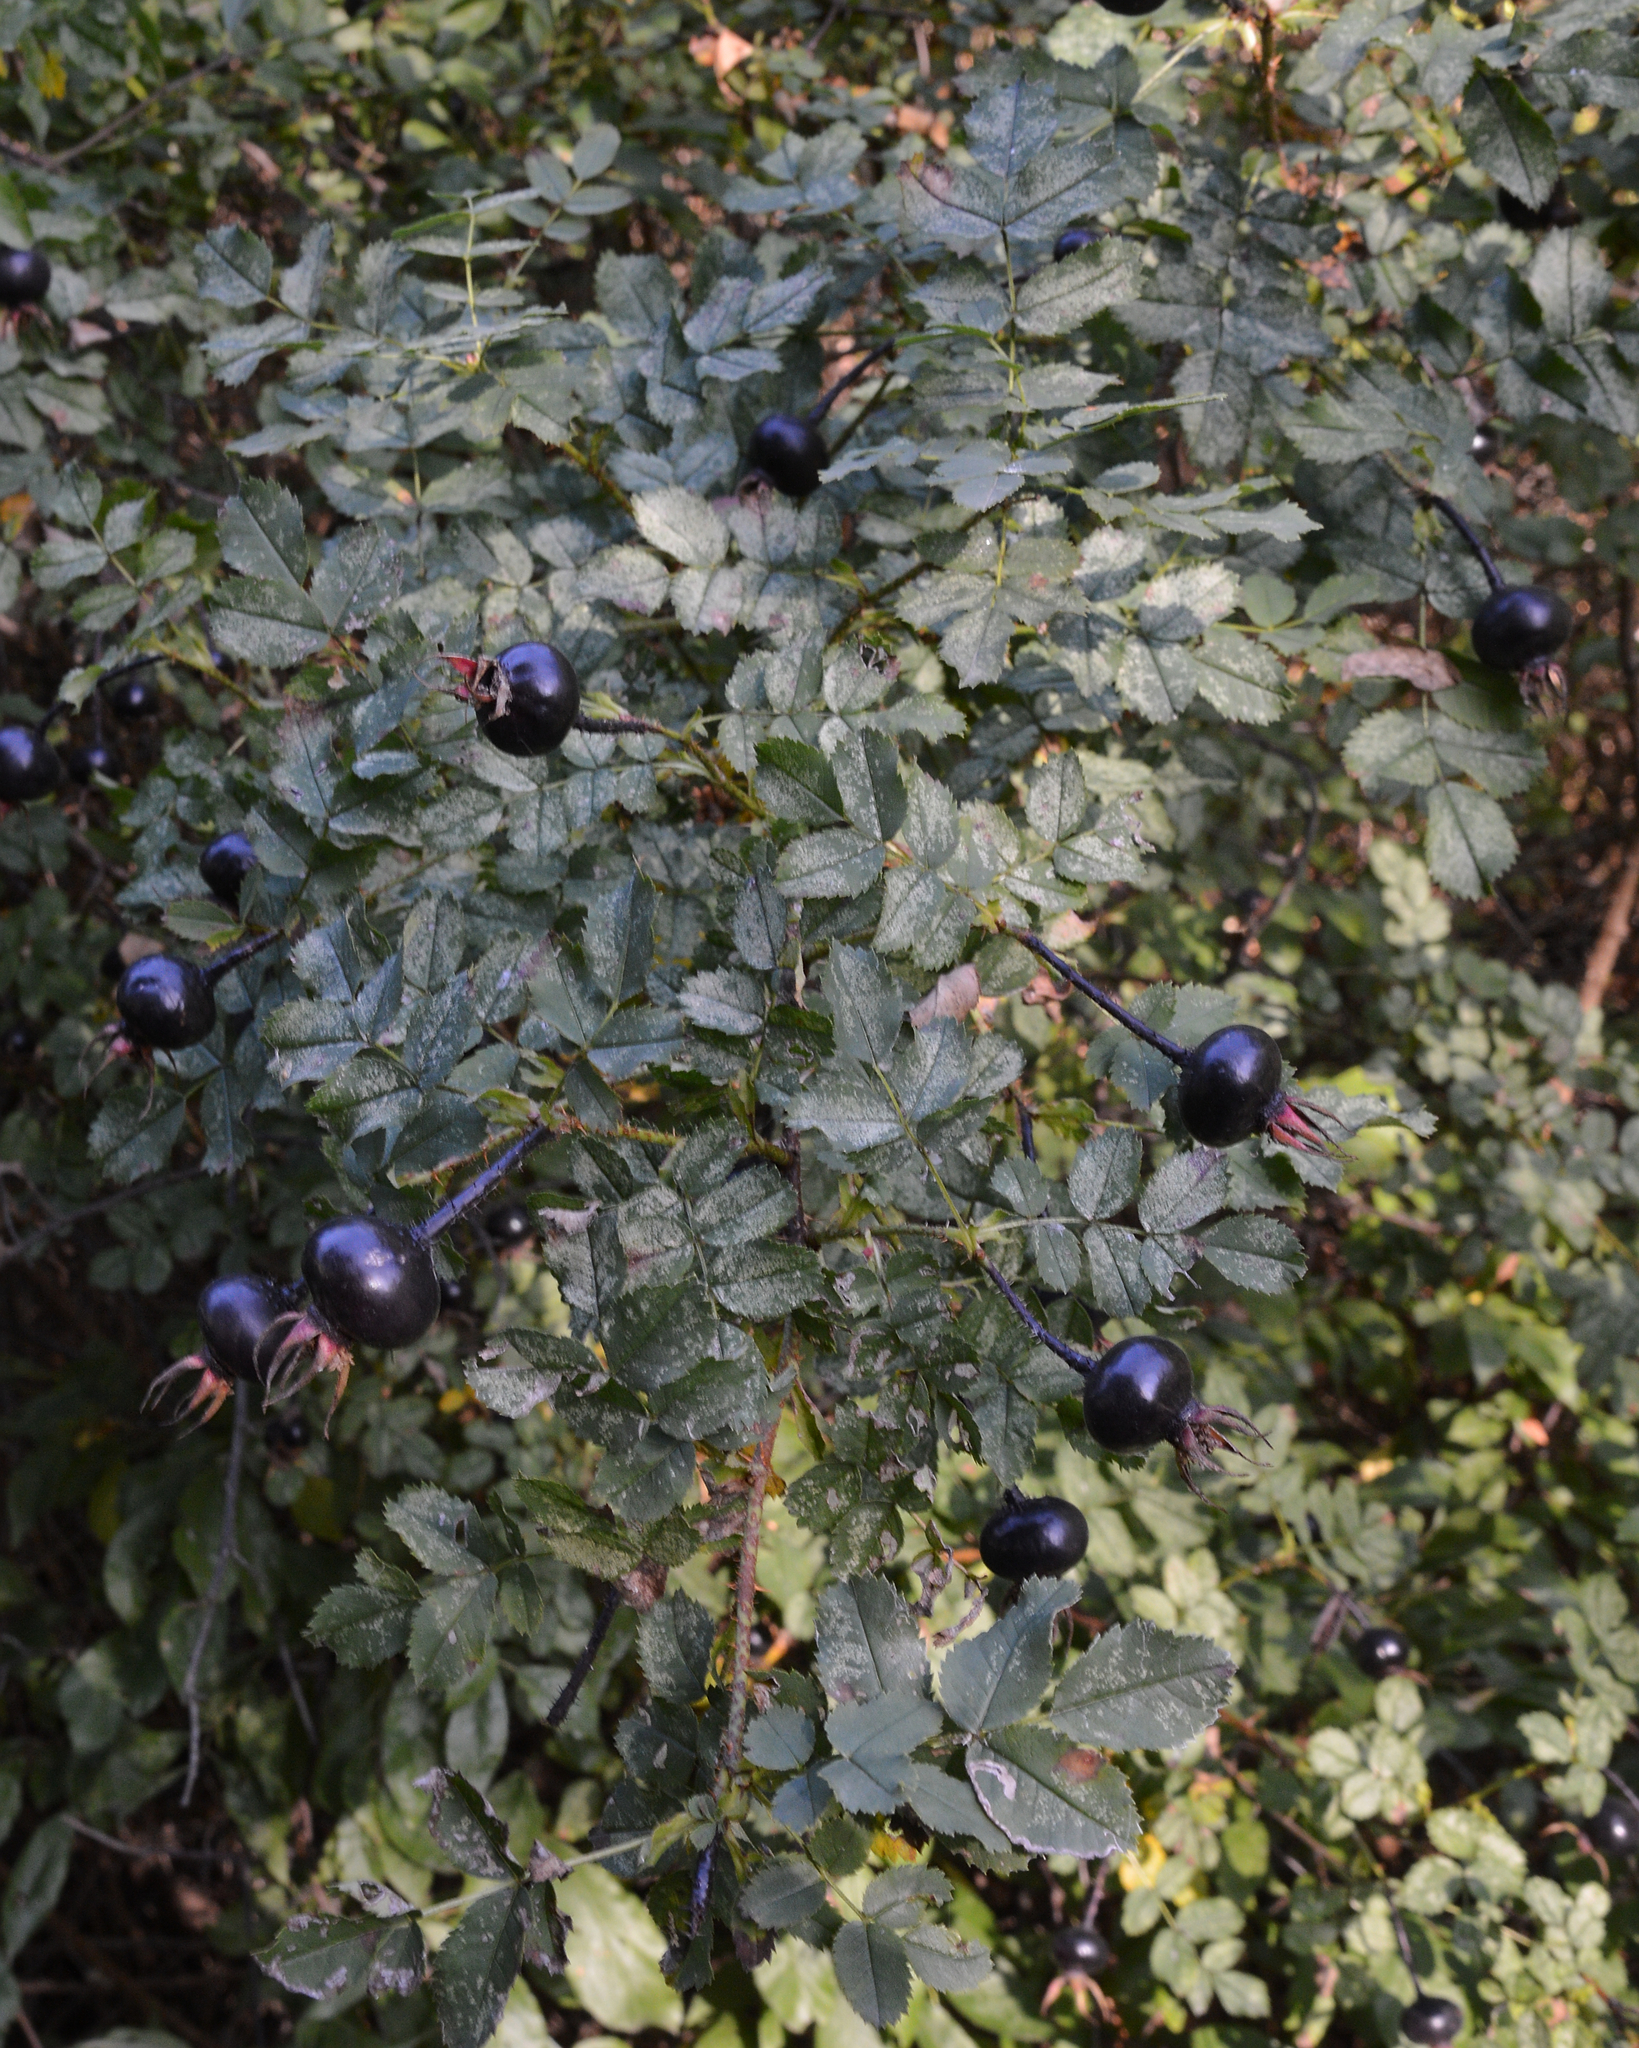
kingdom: Plantae
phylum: Tracheophyta
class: Magnoliopsida
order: Rosales
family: Rosaceae
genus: Rosa
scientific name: Rosa spinosissima
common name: Burnet rose
